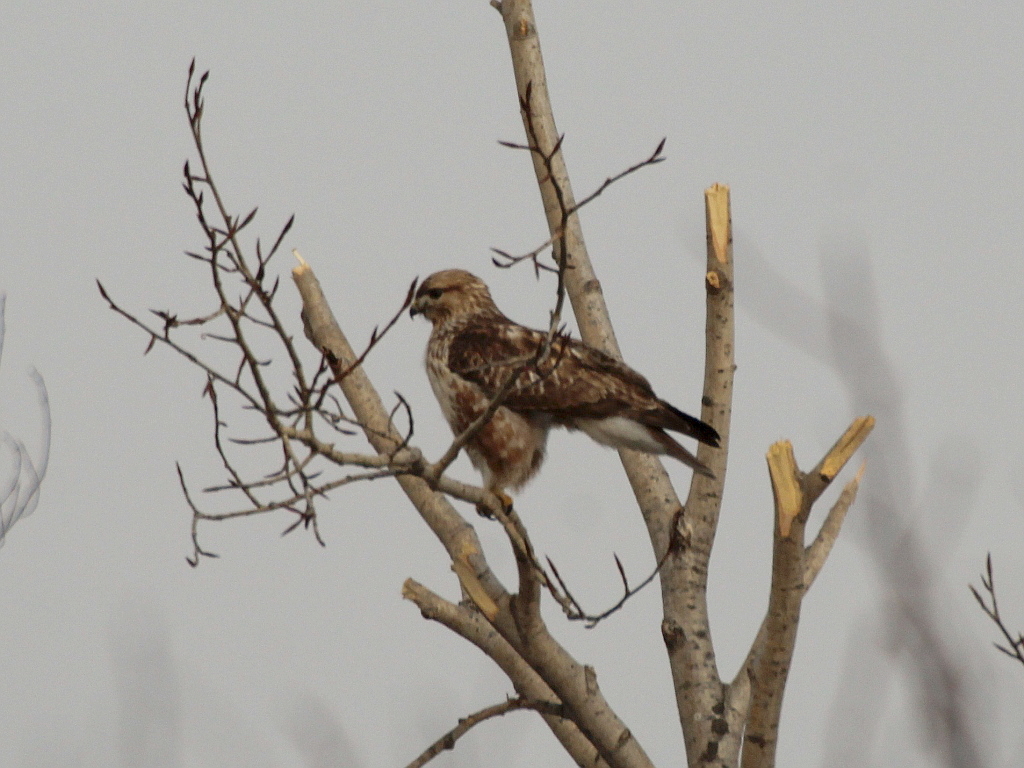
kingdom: Animalia
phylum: Chordata
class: Aves
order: Accipitriformes
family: Accipitridae
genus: Buteo
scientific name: Buteo japonicus
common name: Eastern buzzard
